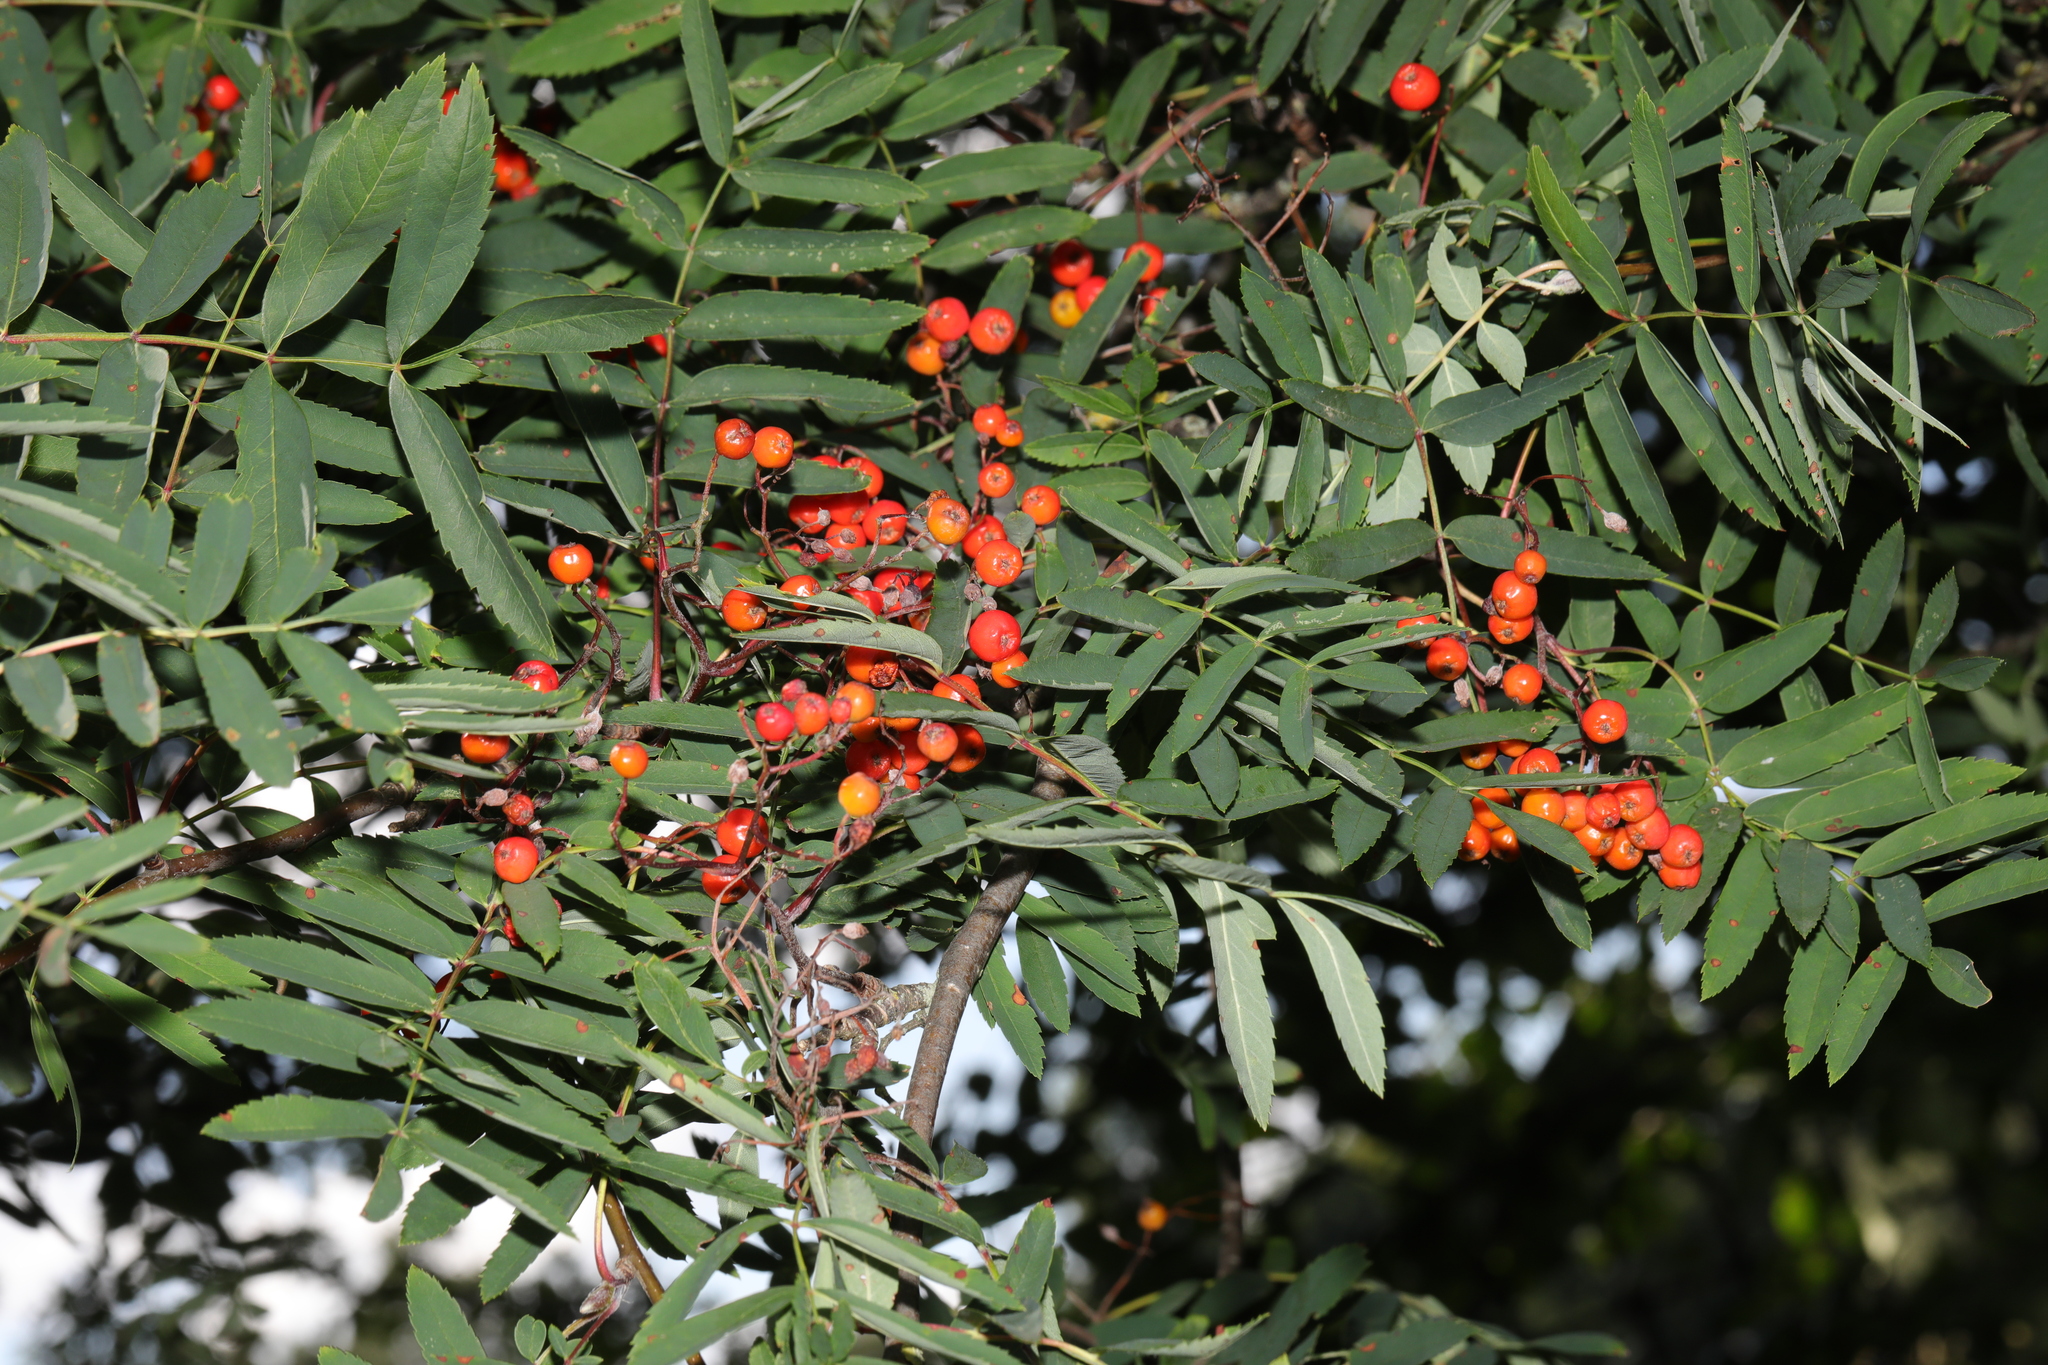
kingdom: Plantae
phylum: Tracheophyta
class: Magnoliopsida
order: Rosales
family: Rosaceae
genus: Sorbus
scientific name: Sorbus aucuparia
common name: Rowan
